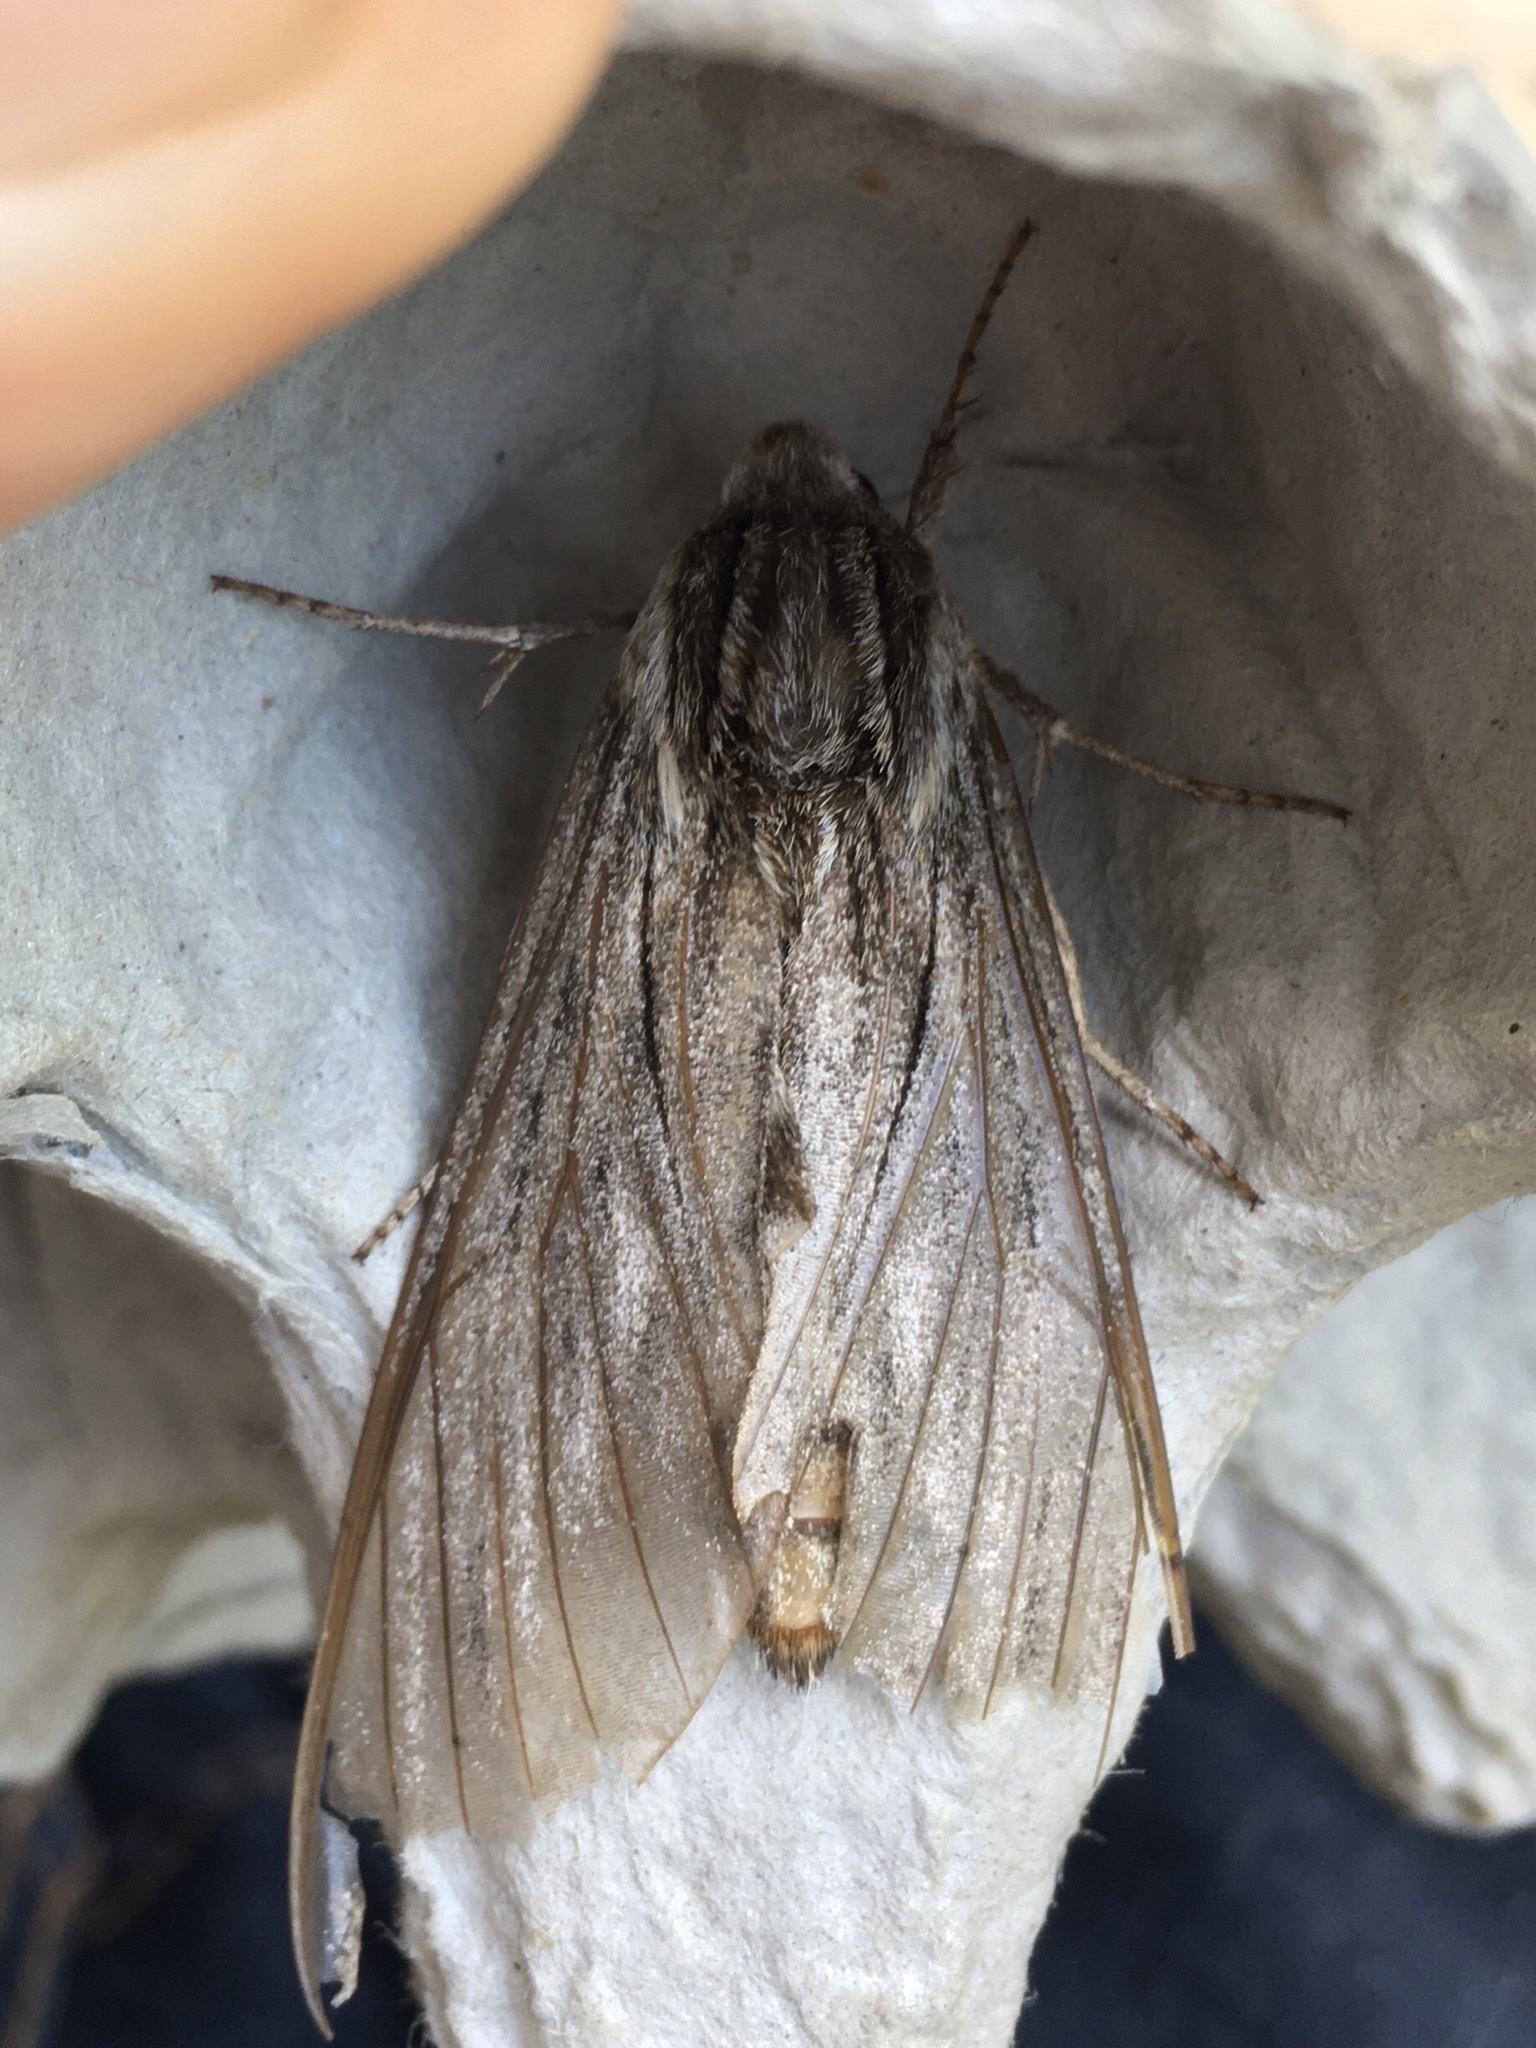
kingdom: Animalia
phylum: Arthropoda
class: Insecta
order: Lepidoptera
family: Sphingidae
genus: Sphinx
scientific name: Sphinx canadensis
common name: Canadian sphinx
